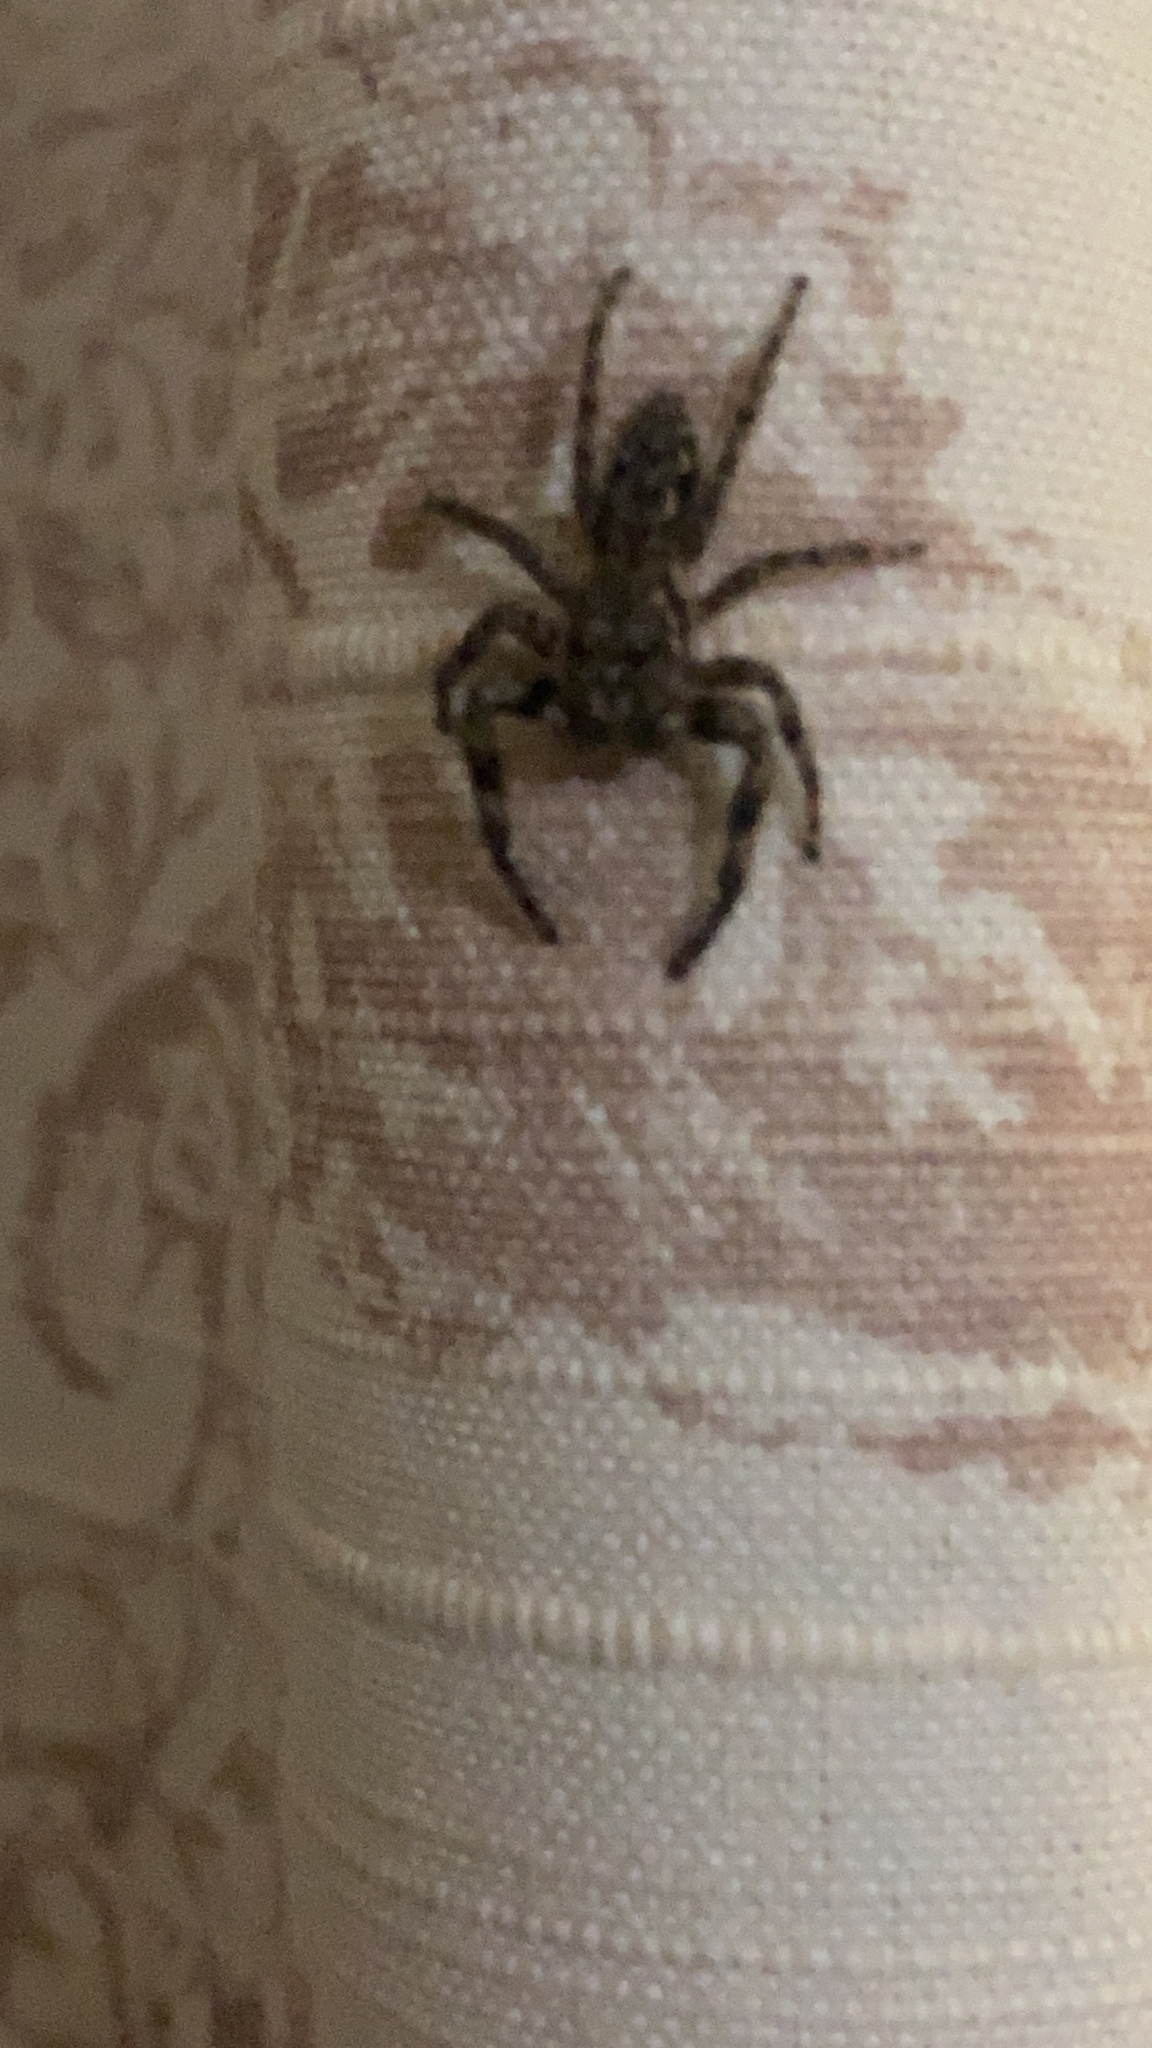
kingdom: Animalia
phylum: Arthropoda
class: Arachnida
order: Araneae
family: Salticidae
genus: Platycryptus
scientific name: Platycryptus undatus
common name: Tan jumping spider
